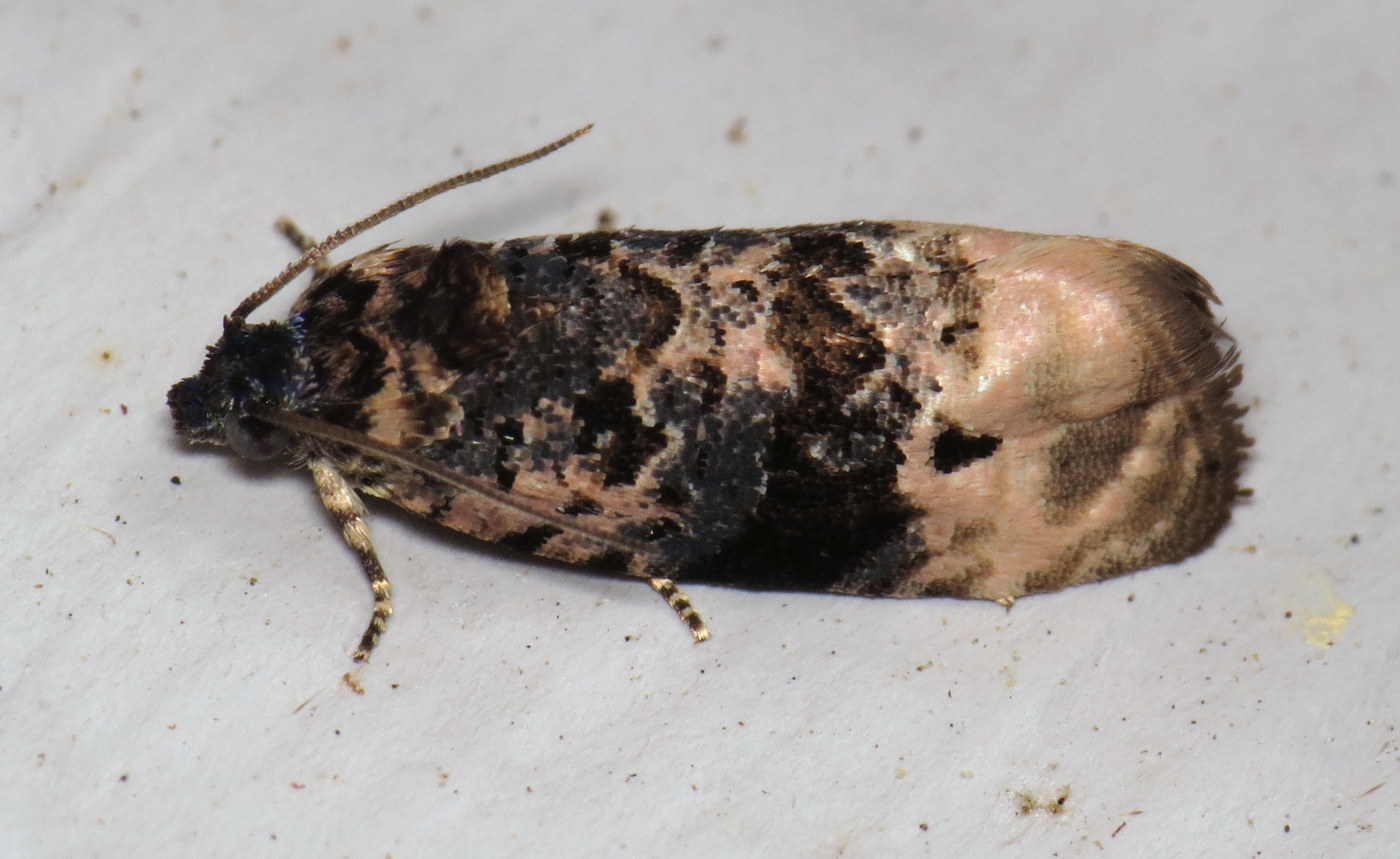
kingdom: Animalia
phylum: Arthropoda
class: Insecta
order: Lepidoptera
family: Tortricidae
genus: Hedya
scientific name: Hedya separatana
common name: Pink-washed leafroller moth
